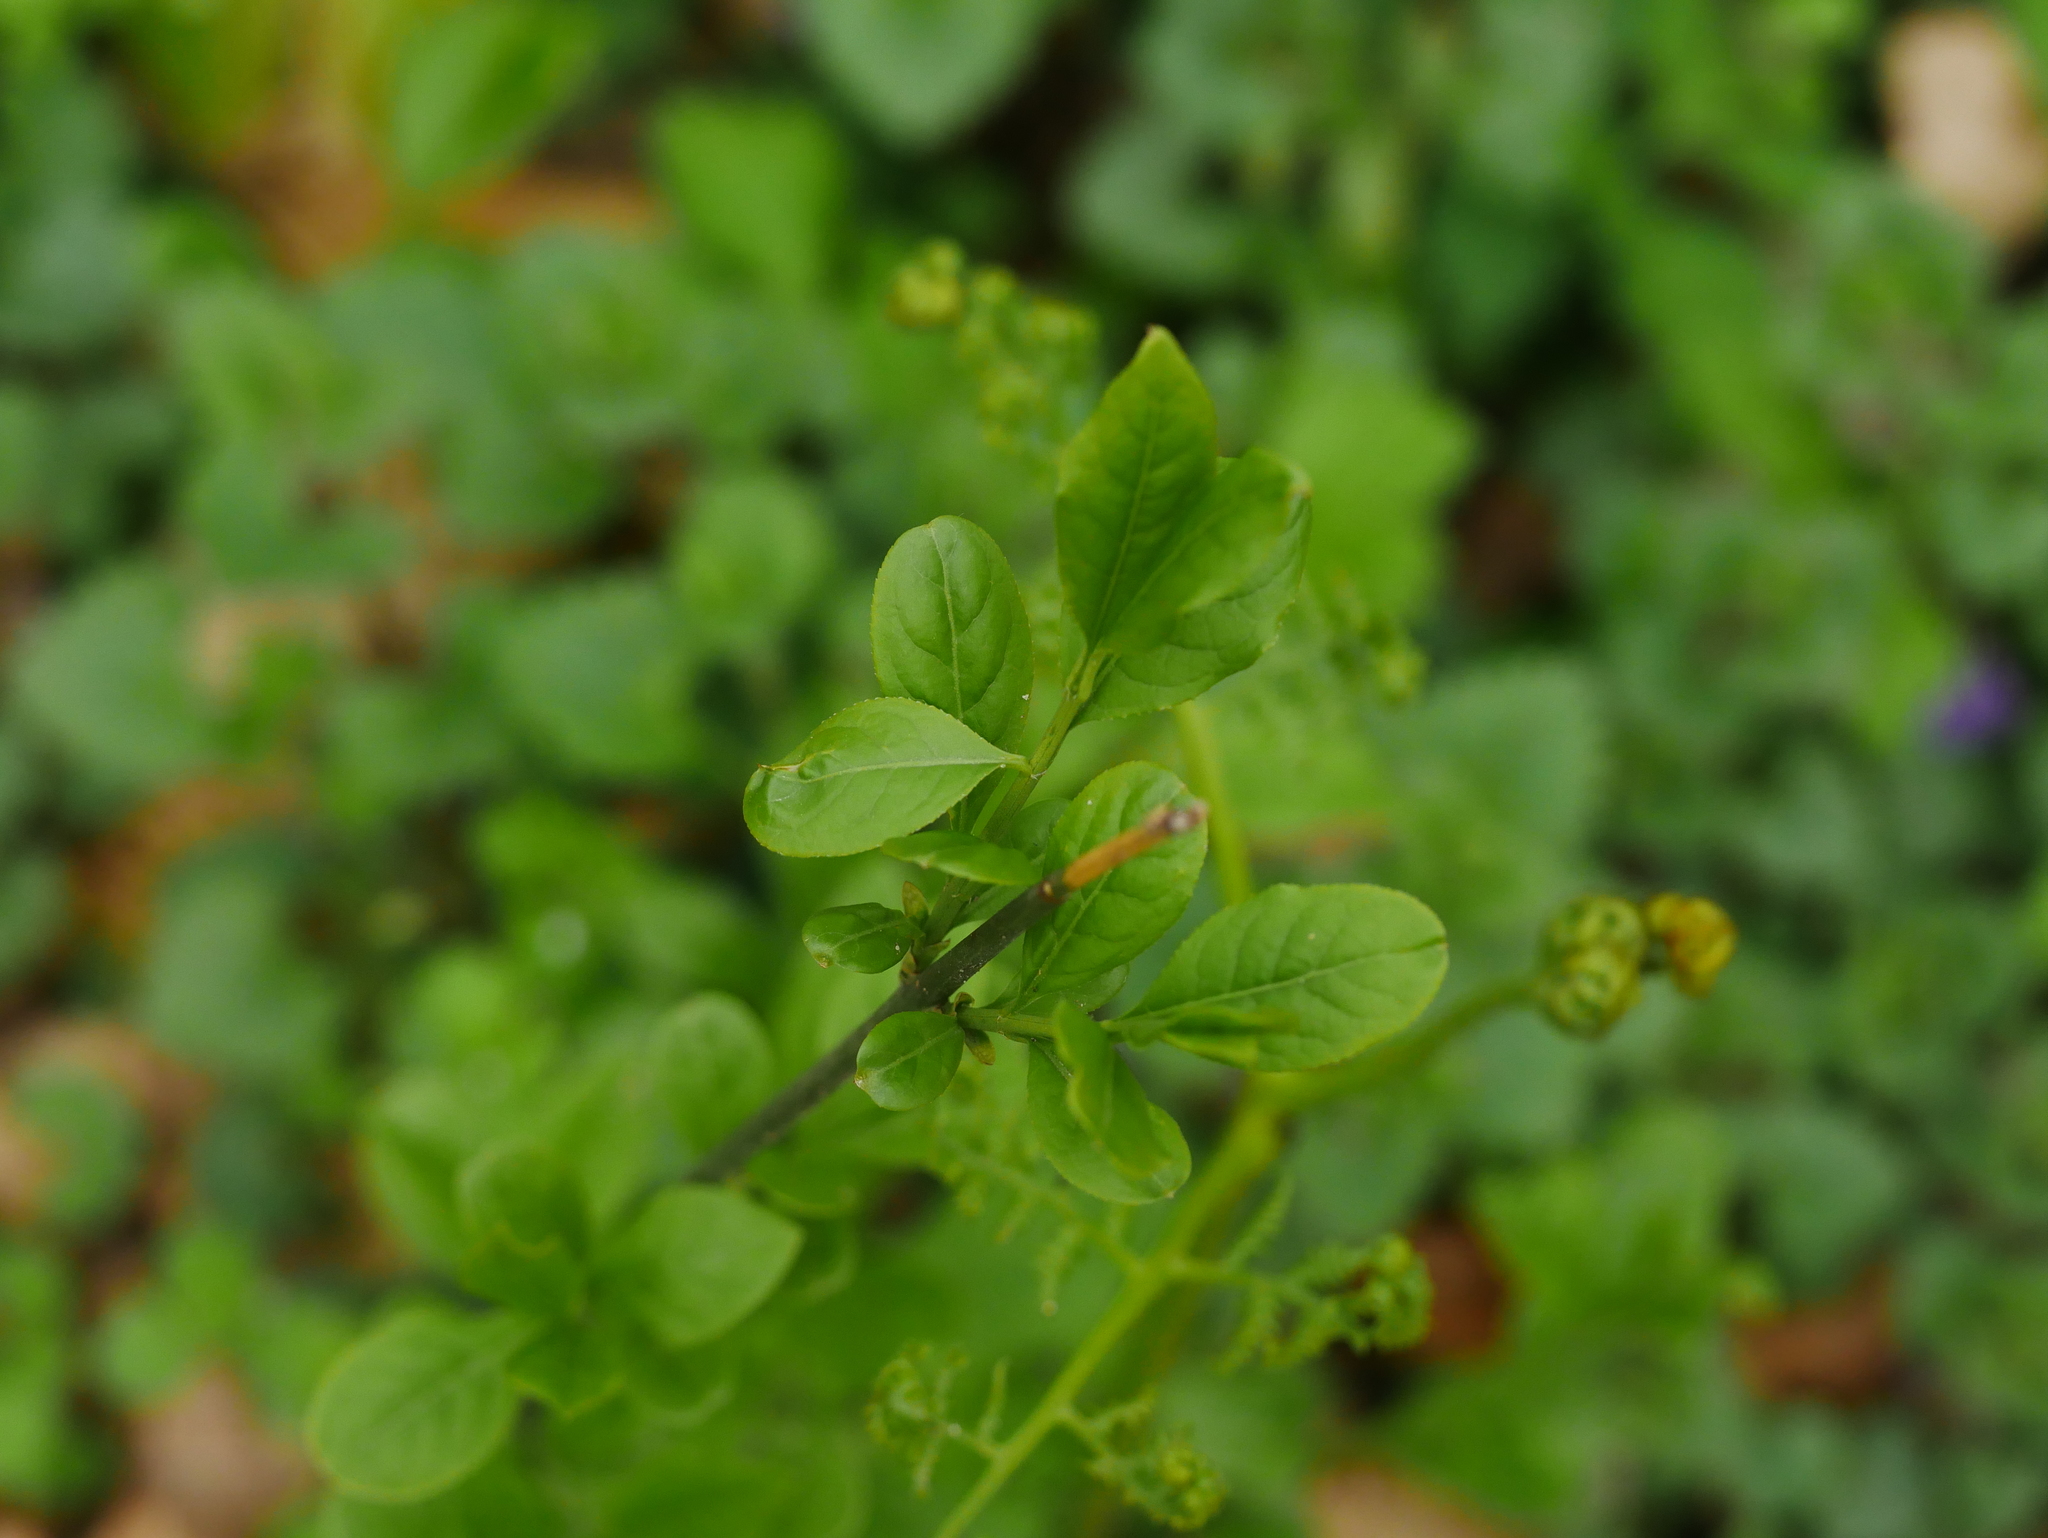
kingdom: Plantae
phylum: Tracheophyta
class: Magnoliopsida
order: Celastrales
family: Celastraceae
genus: Euonymus
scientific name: Euonymus europaeus
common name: Spindle
